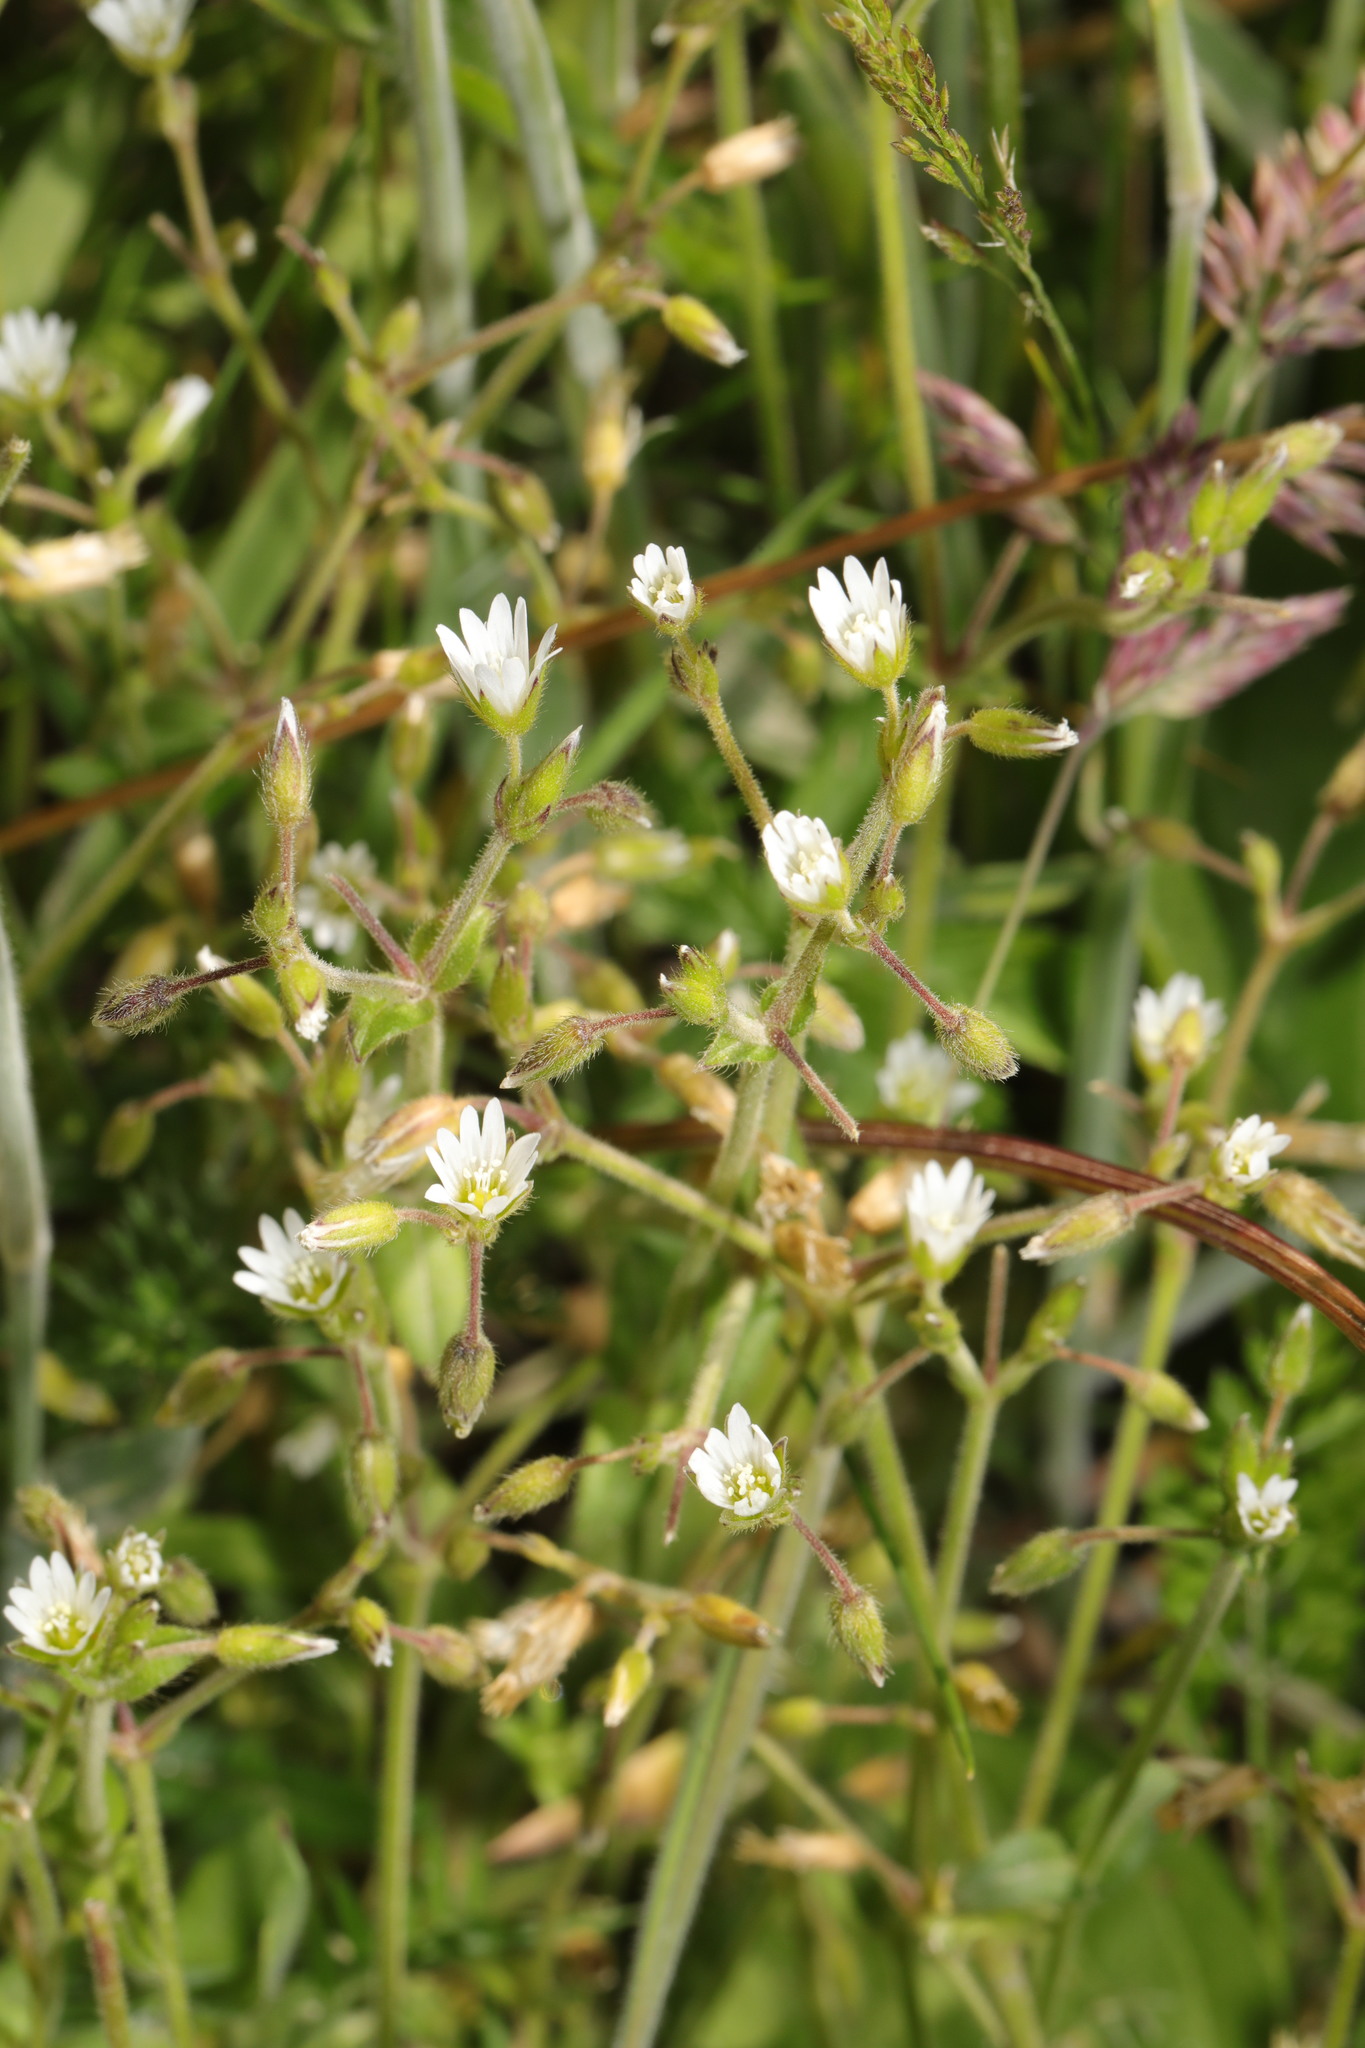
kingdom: Plantae
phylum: Tracheophyta
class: Magnoliopsida
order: Caryophyllales
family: Caryophyllaceae
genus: Cerastium
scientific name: Cerastium fontanum
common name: Common mouse-ear
